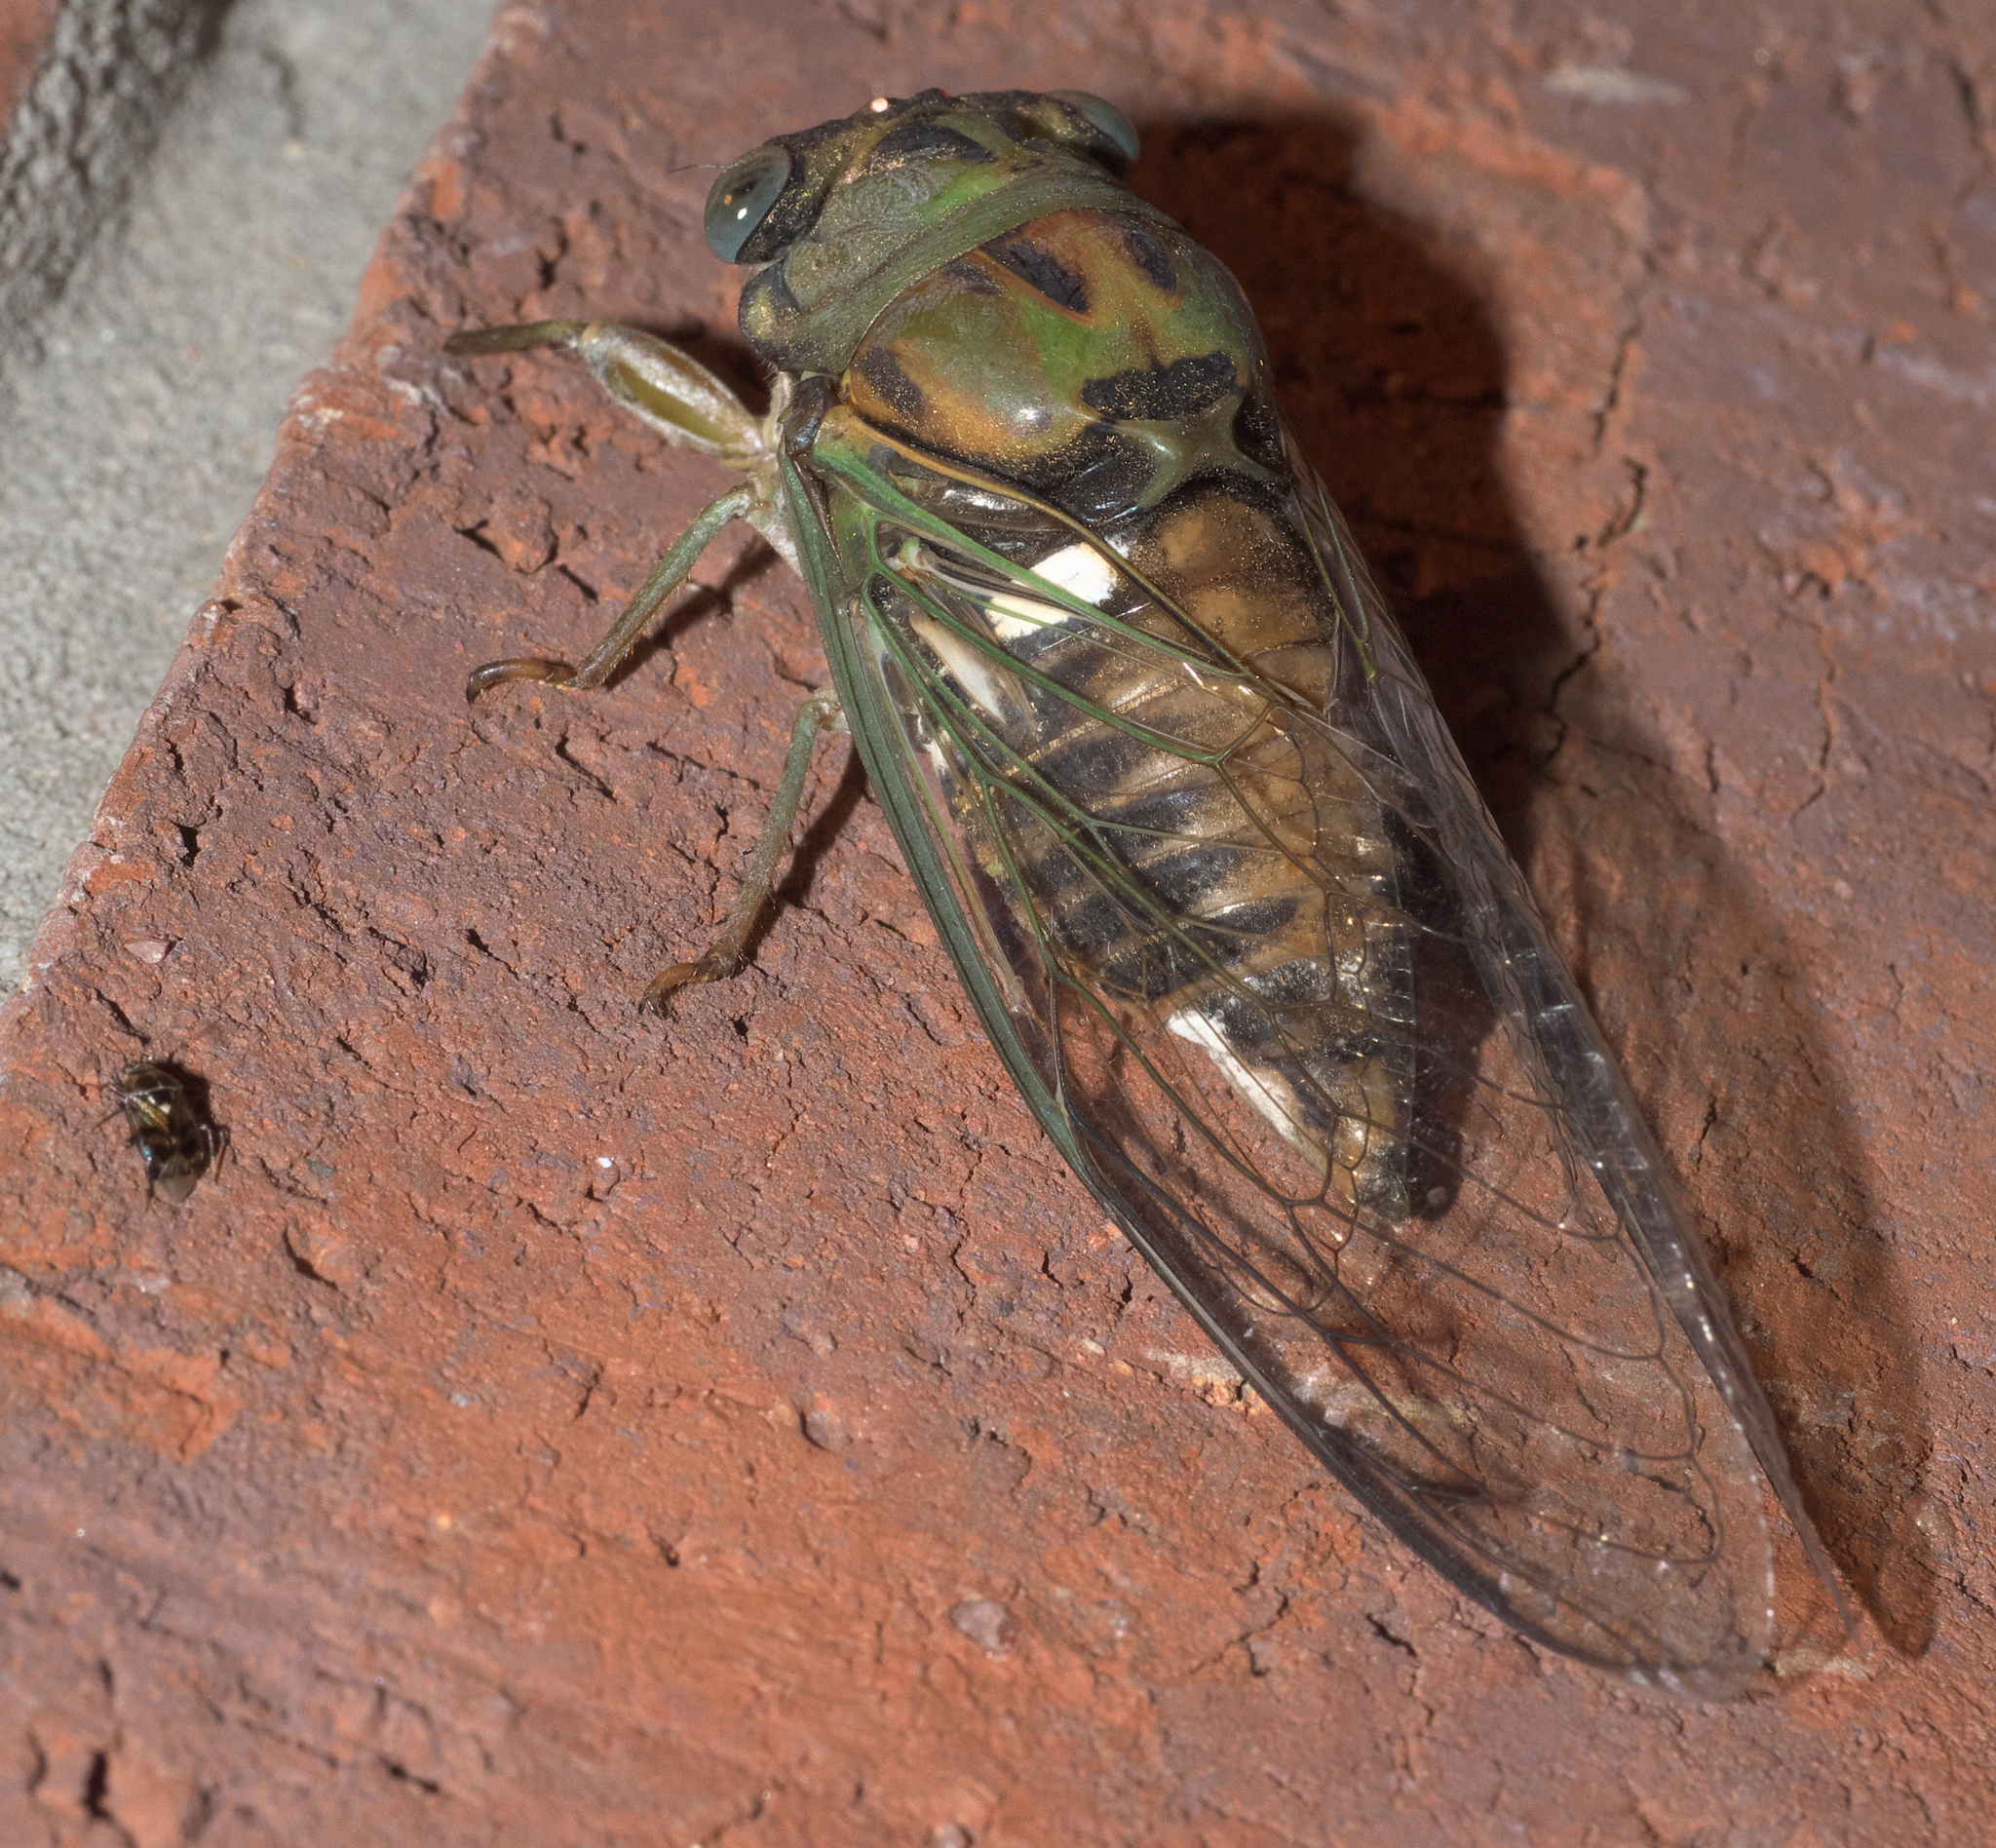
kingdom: Animalia
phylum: Arthropoda
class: Insecta
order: Hemiptera
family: Cicadidae
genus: Neotibicen
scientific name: Neotibicen pruinosus
